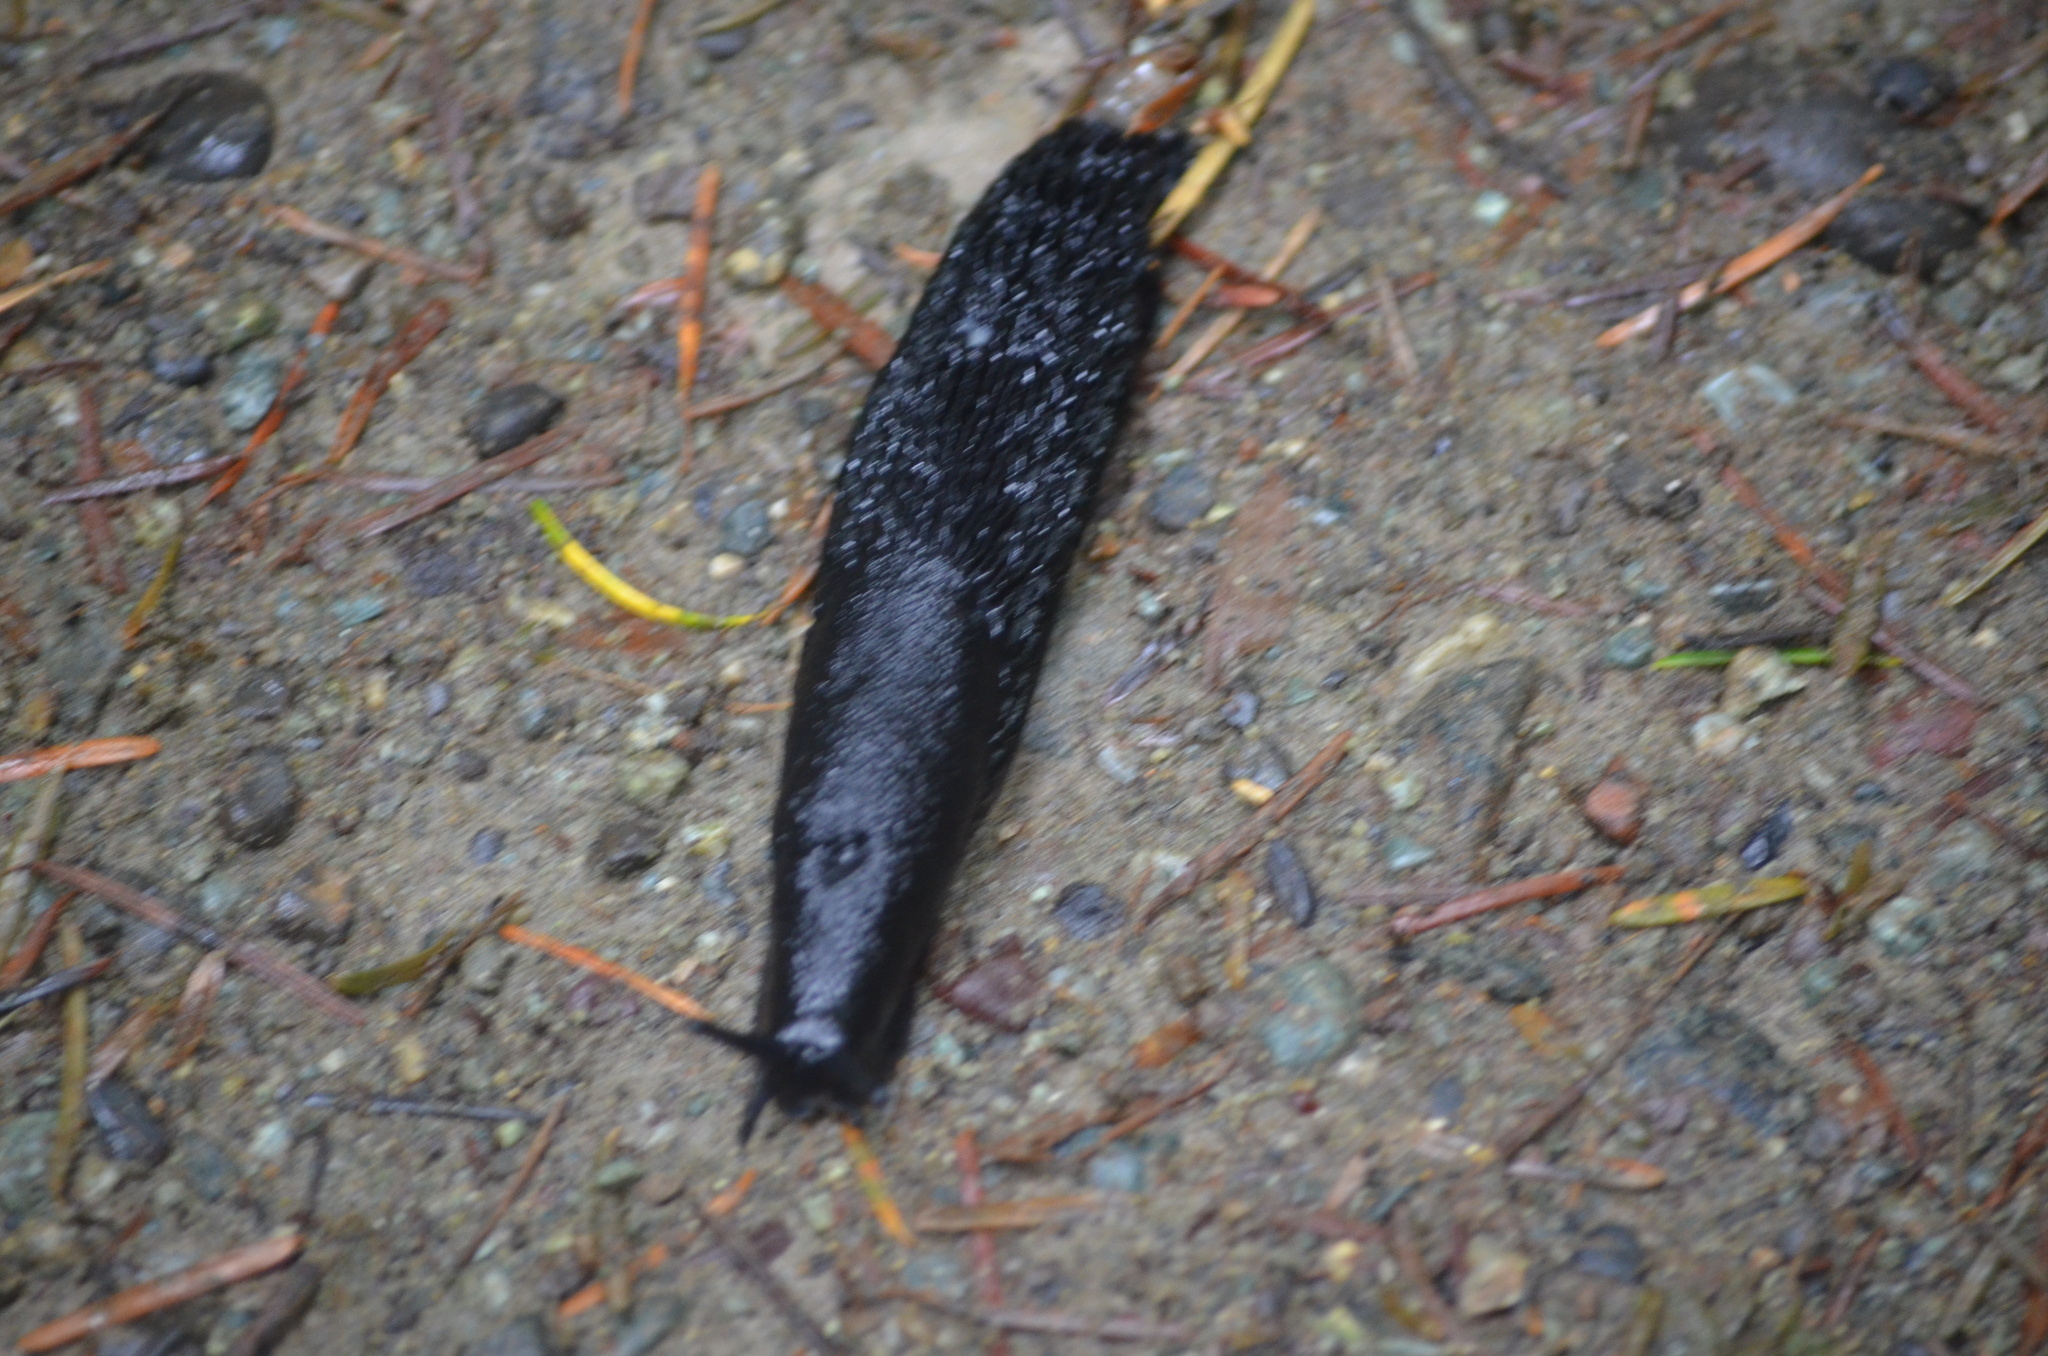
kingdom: Animalia
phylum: Mollusca
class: Gastropoda
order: Stylommatophora
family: Arionidae
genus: Arion
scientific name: Arion
